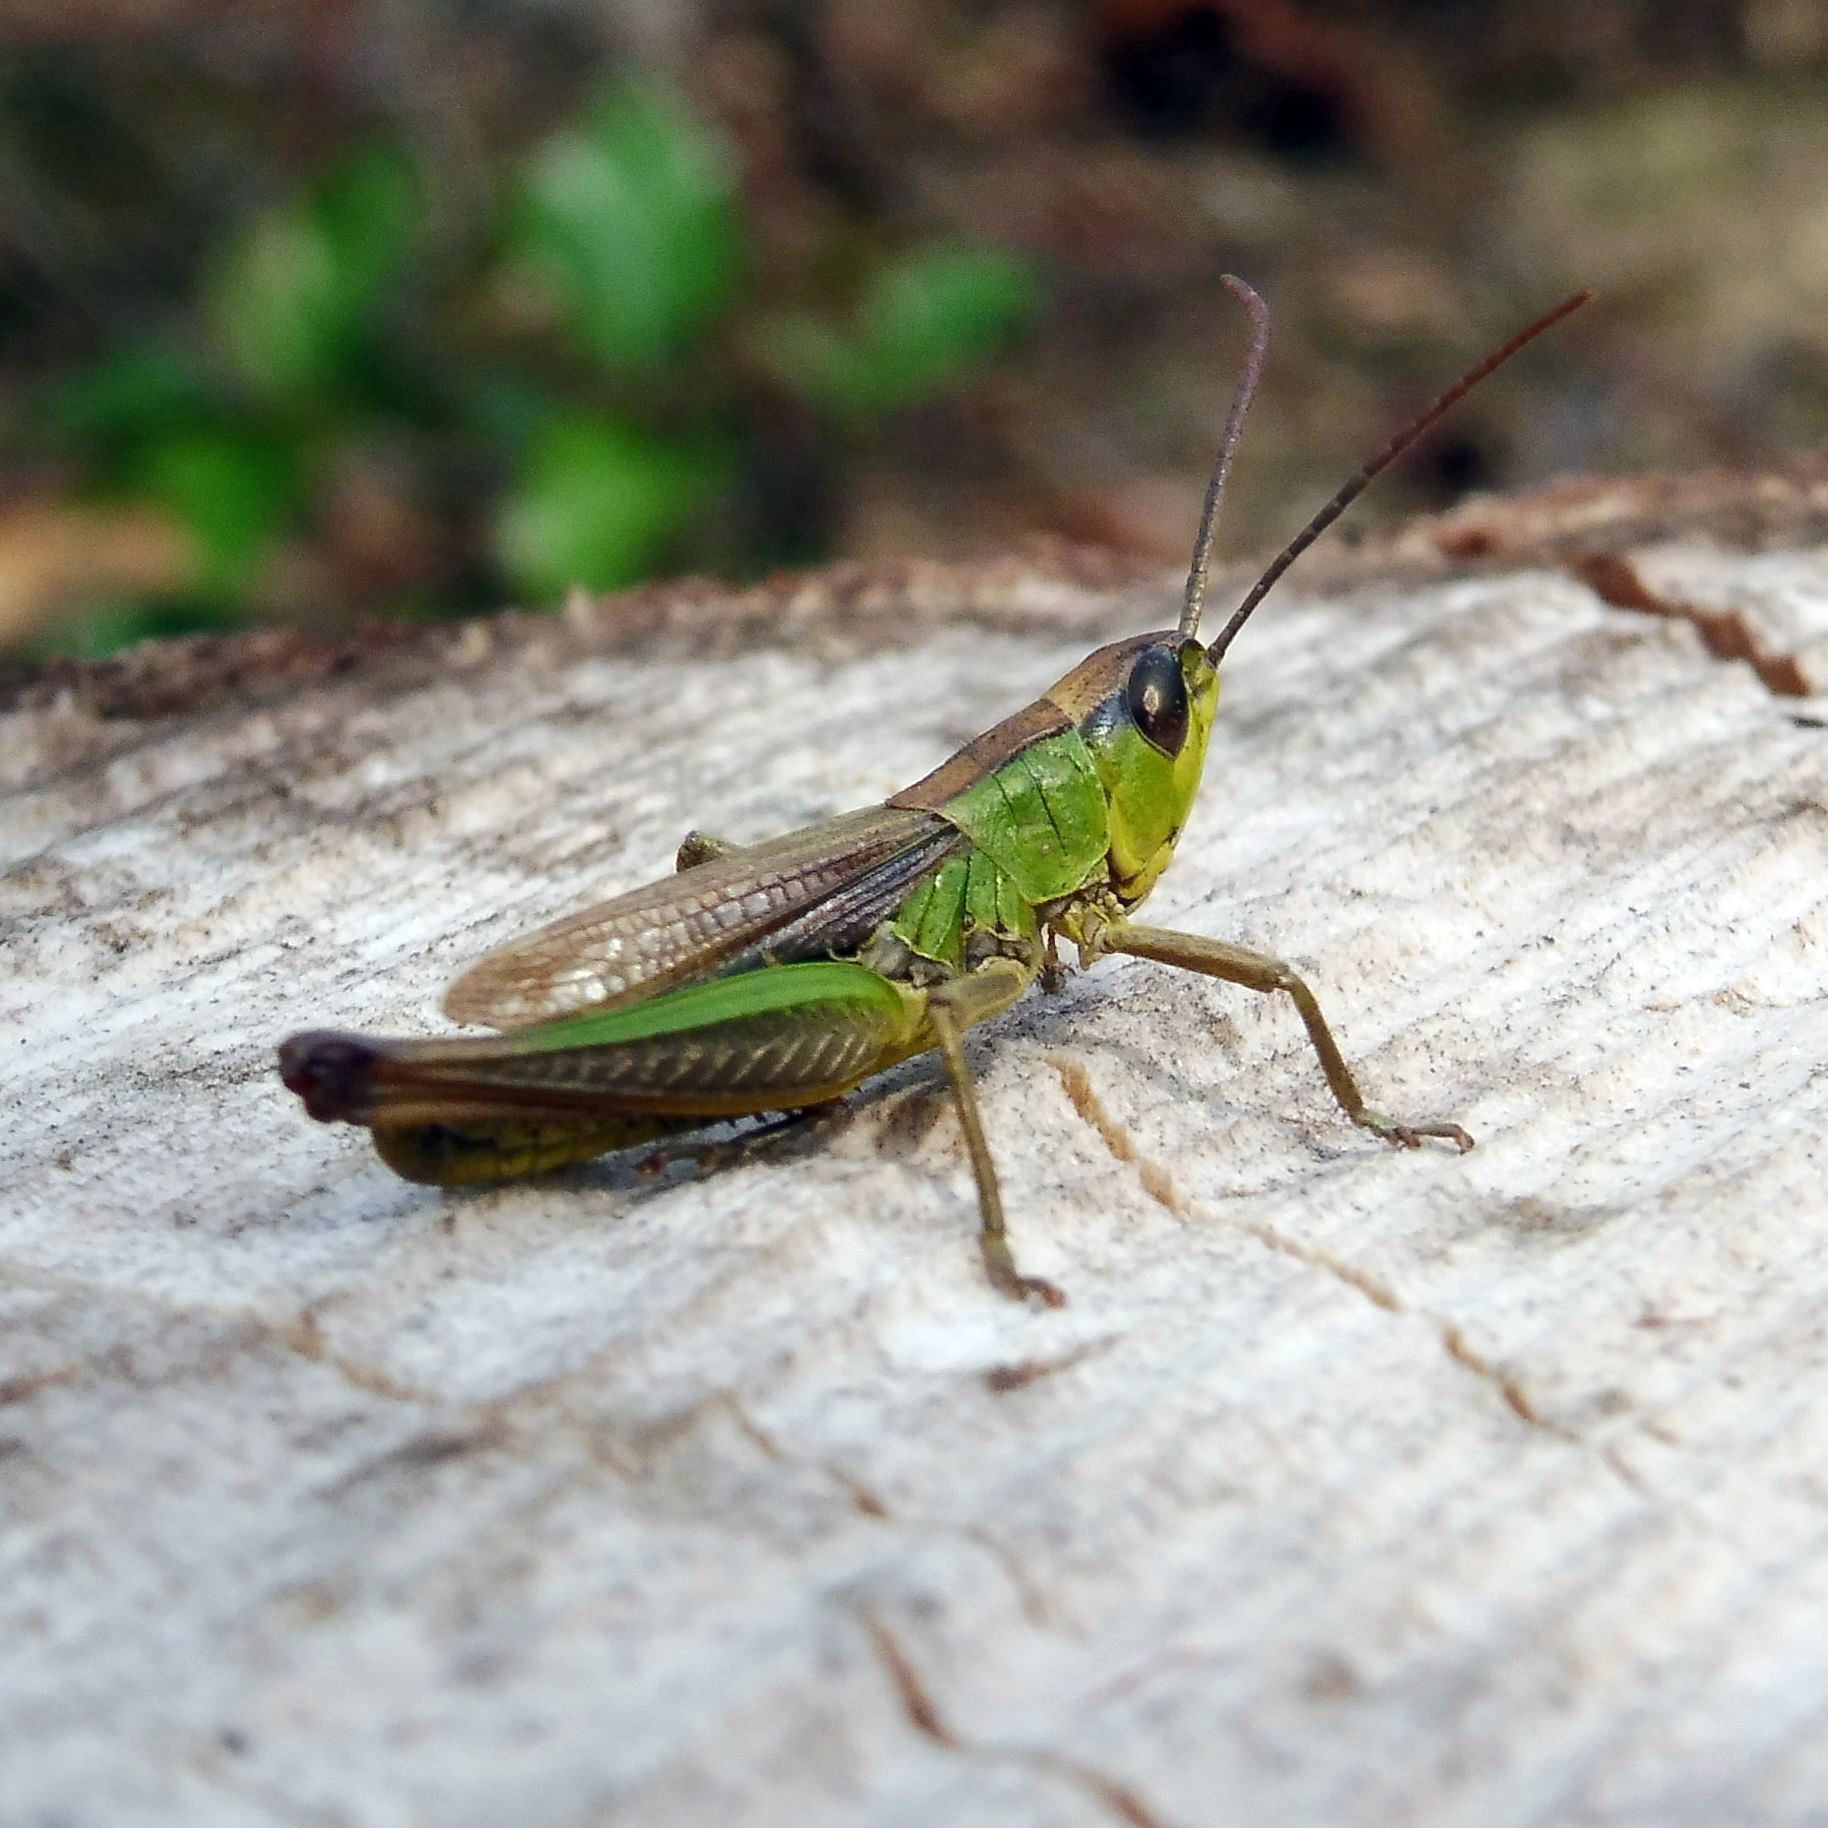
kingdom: Animalia
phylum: Arthropoda
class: Insecta
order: Orthoptera
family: Acrididae
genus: Pseudochorthippus
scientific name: Pseudochorthippus parallelus
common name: Meadow grasshopper
